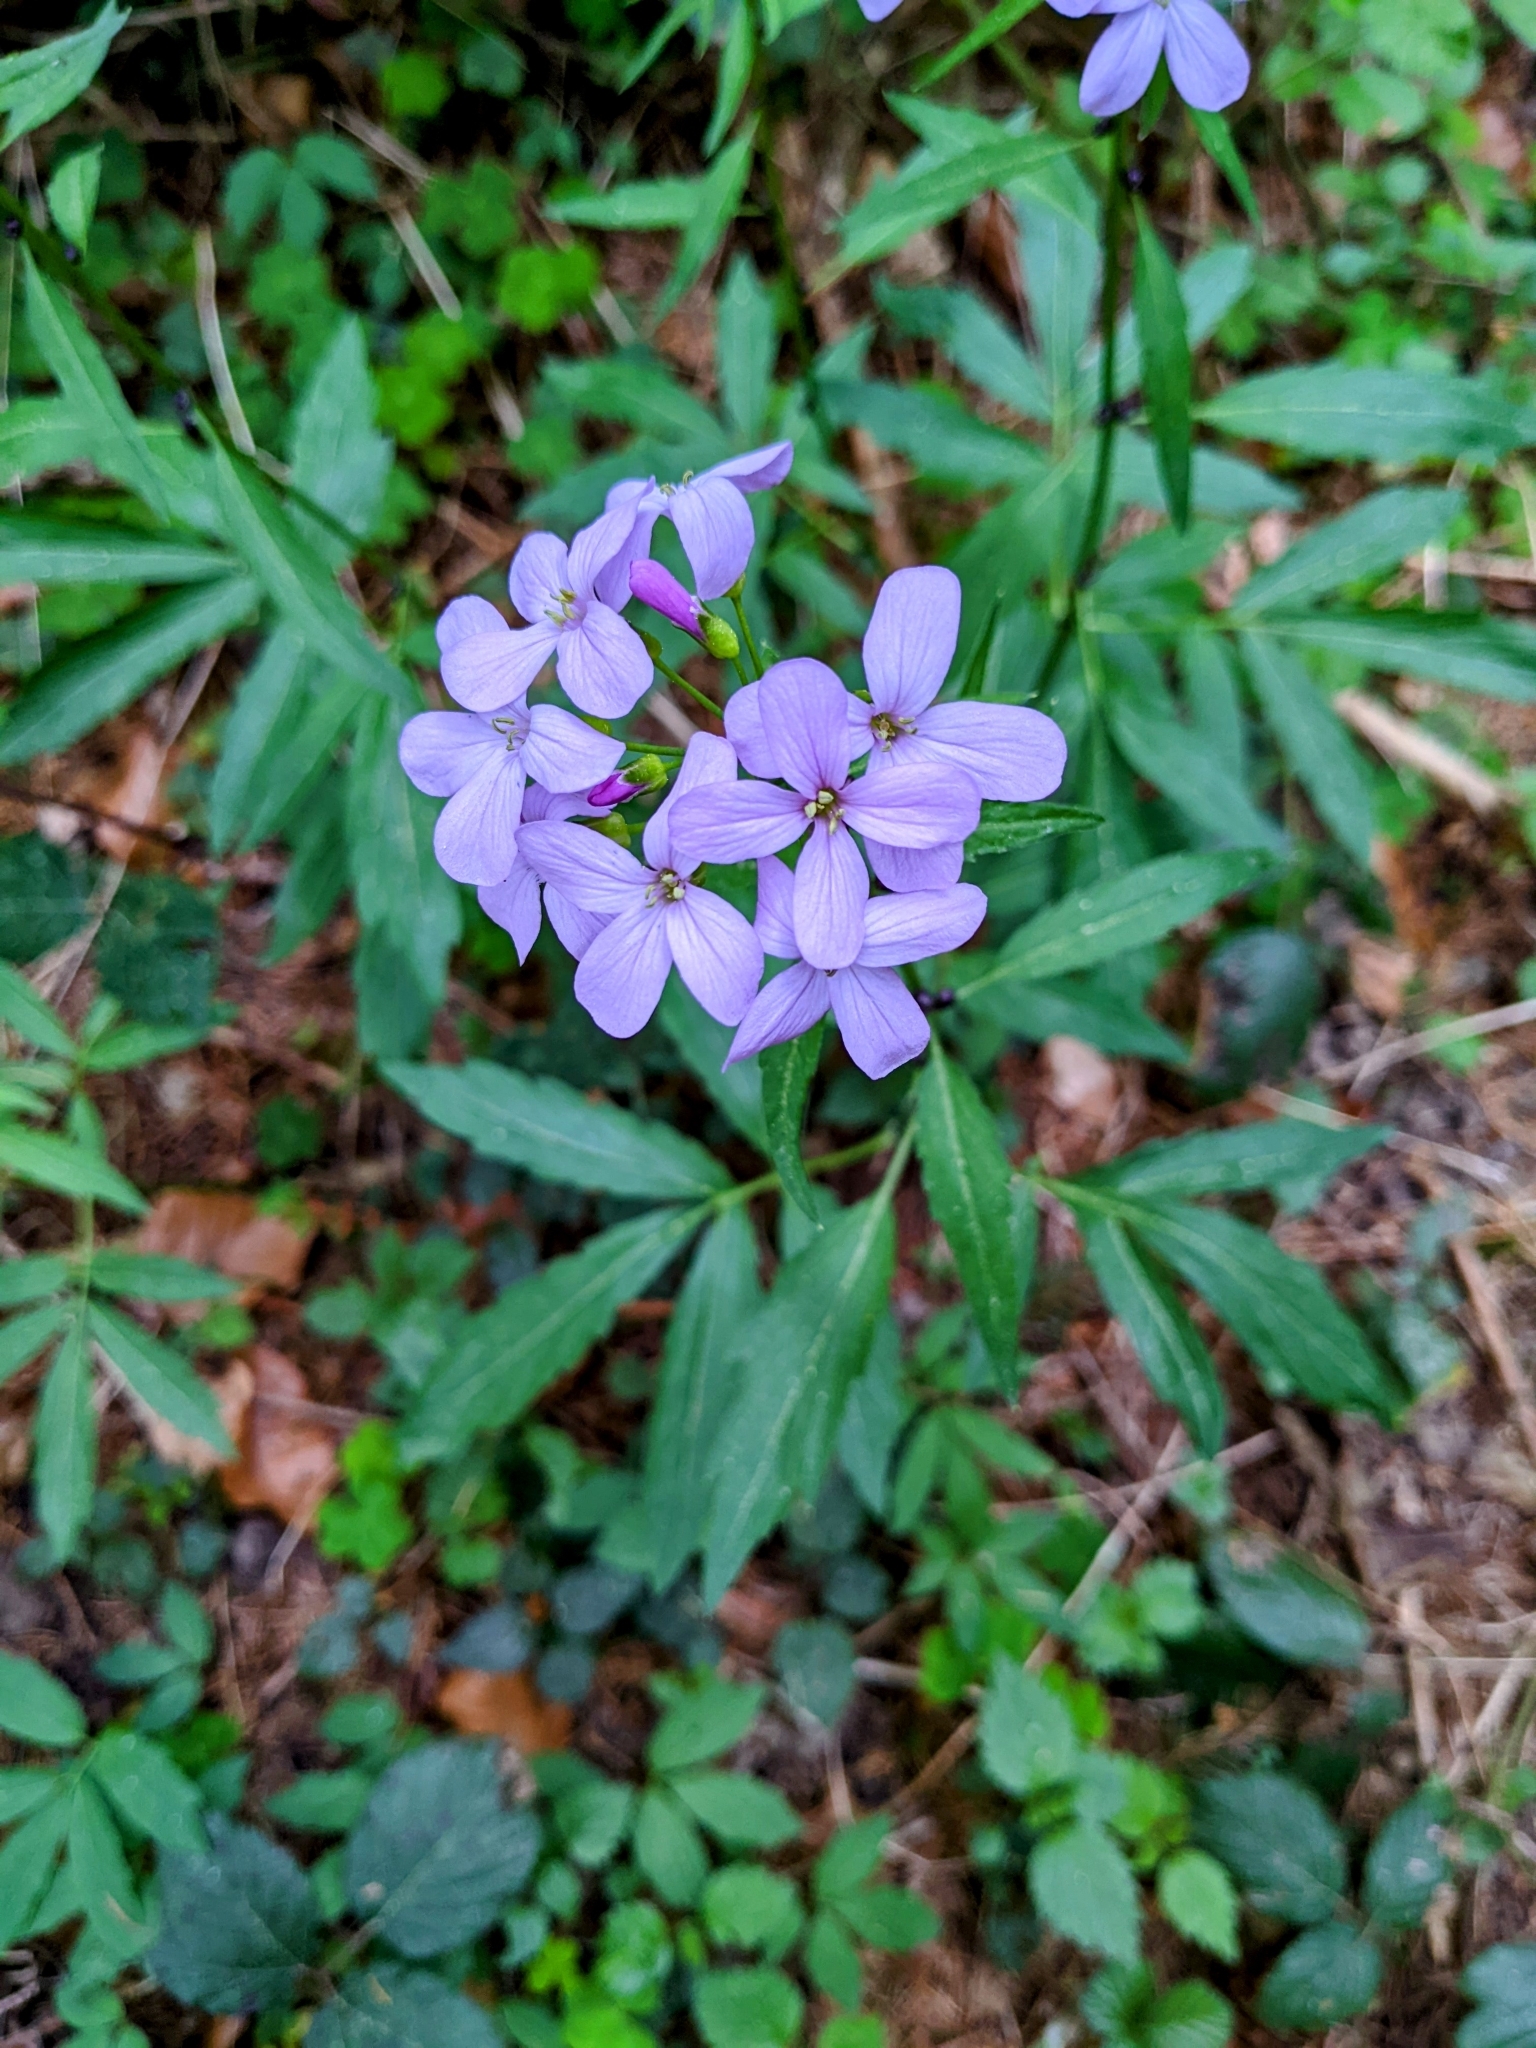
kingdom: Plantae
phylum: Tracheophyta
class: Magnoliopsida
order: Brassicales
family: Brassicaceae
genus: Cardamine
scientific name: Cardamine bulbifera
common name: Coralroot bittercress
